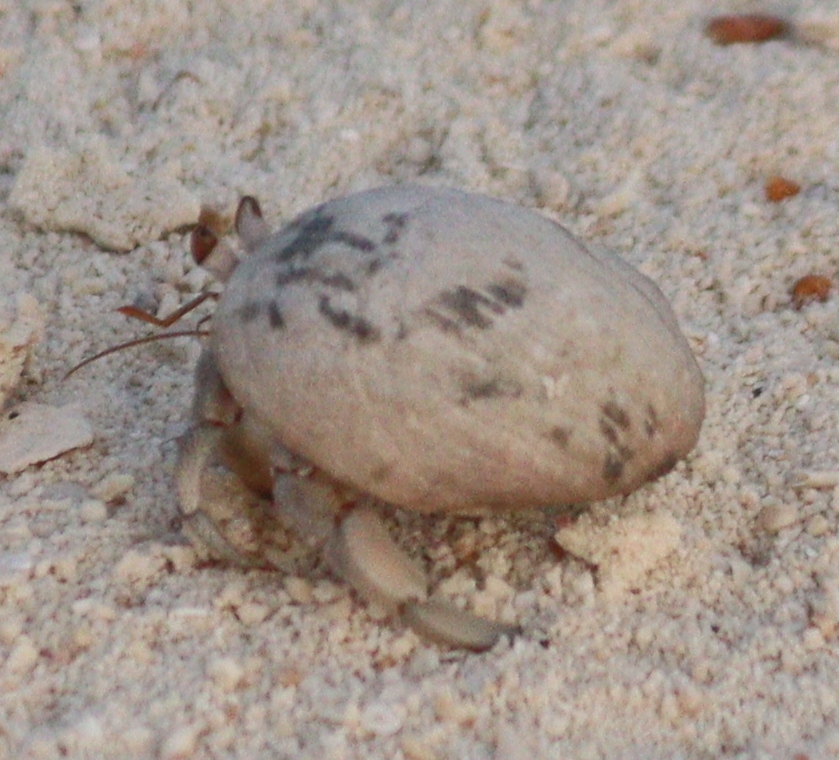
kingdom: Animalia
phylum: Arthropoda
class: Malacostraca
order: Decapoda
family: Coenobitidae
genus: Coenobita
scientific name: Coenobita scaevola
